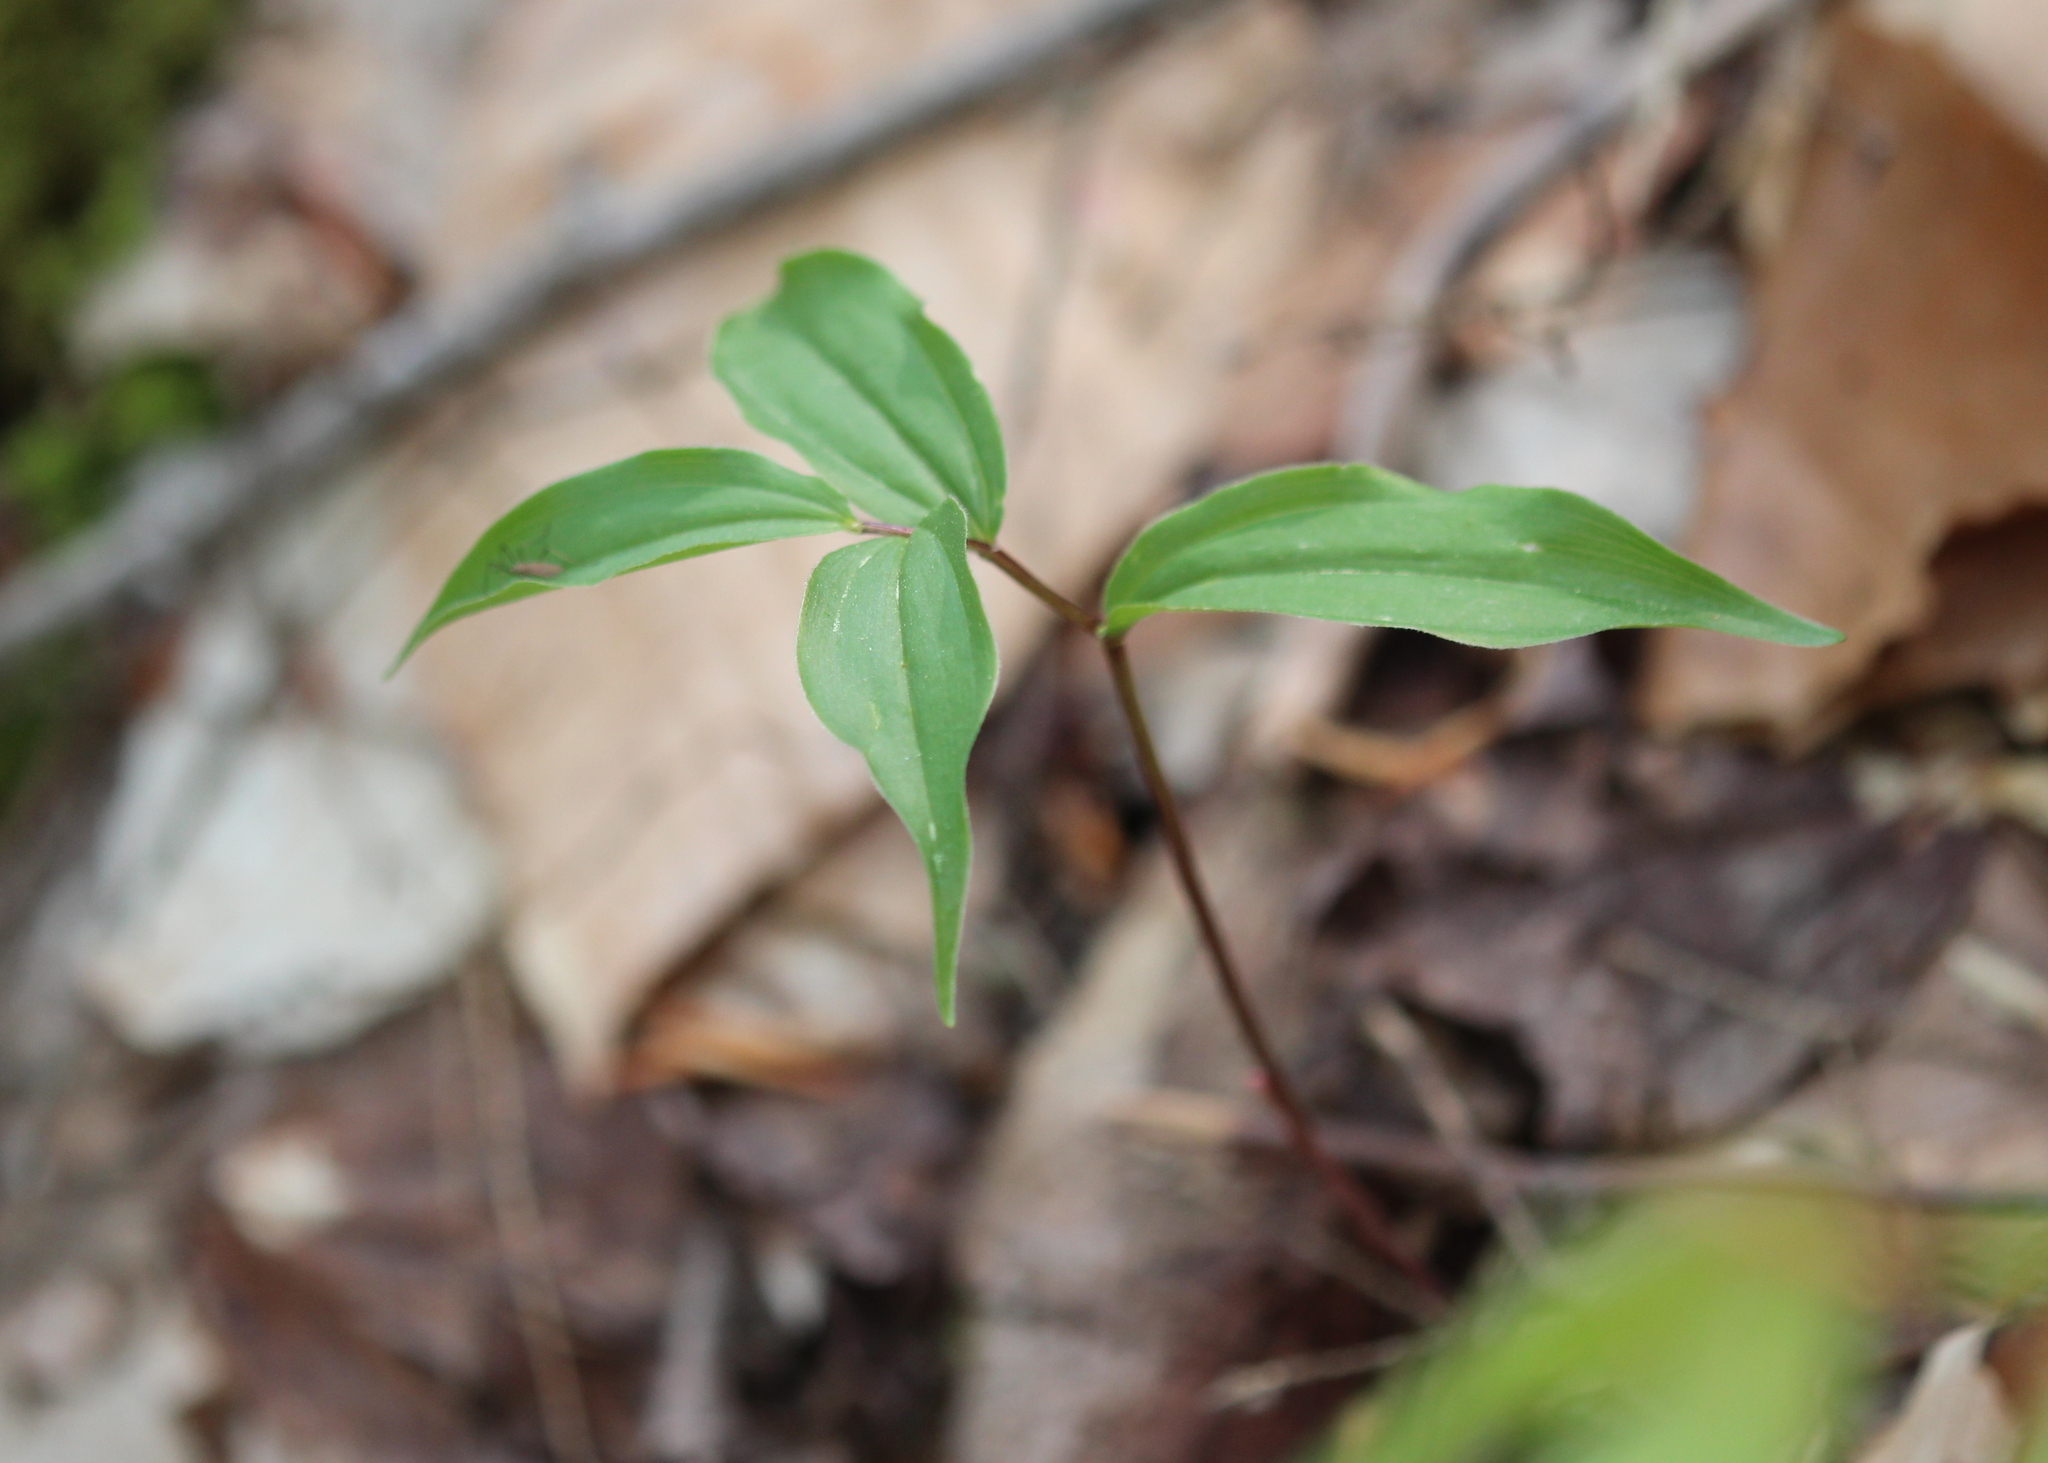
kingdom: Plantae
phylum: Tracheophyta
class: Liliopsida
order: Asparagales
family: Asparagaceae
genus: Maianthemum
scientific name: Maianthemum racemosum
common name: False spikenard
